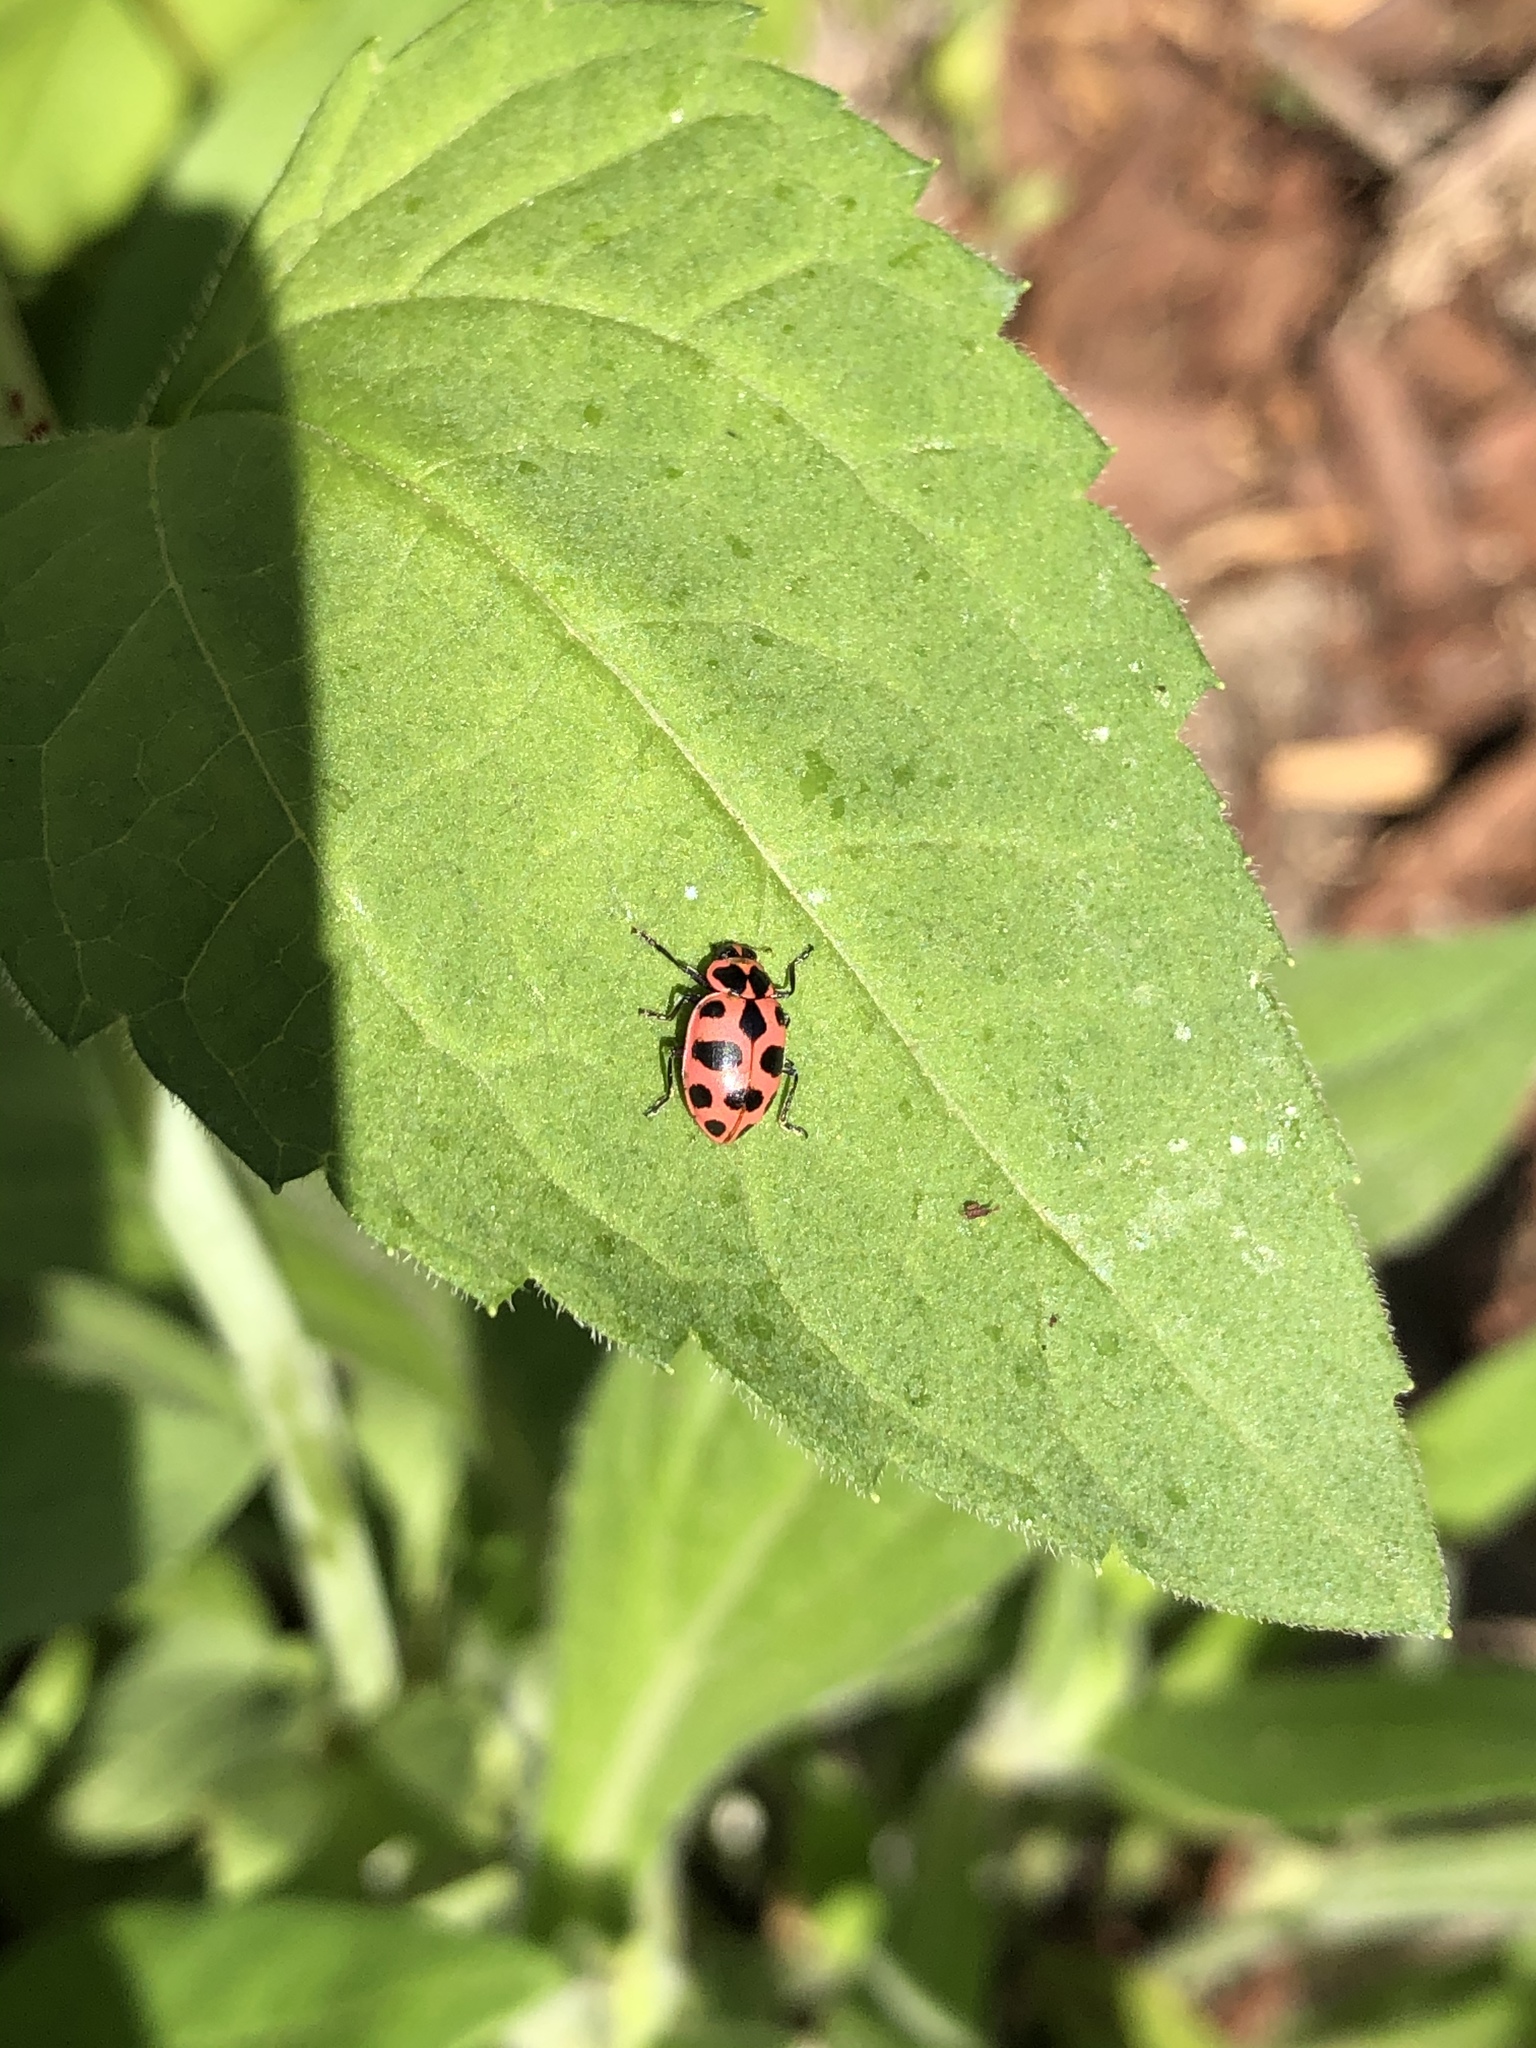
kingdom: Animalia
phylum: Arthropoda
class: Insecta
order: Coleoptera
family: Coccinellidae
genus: Coleomegilla
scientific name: Coleomegilla maculata
